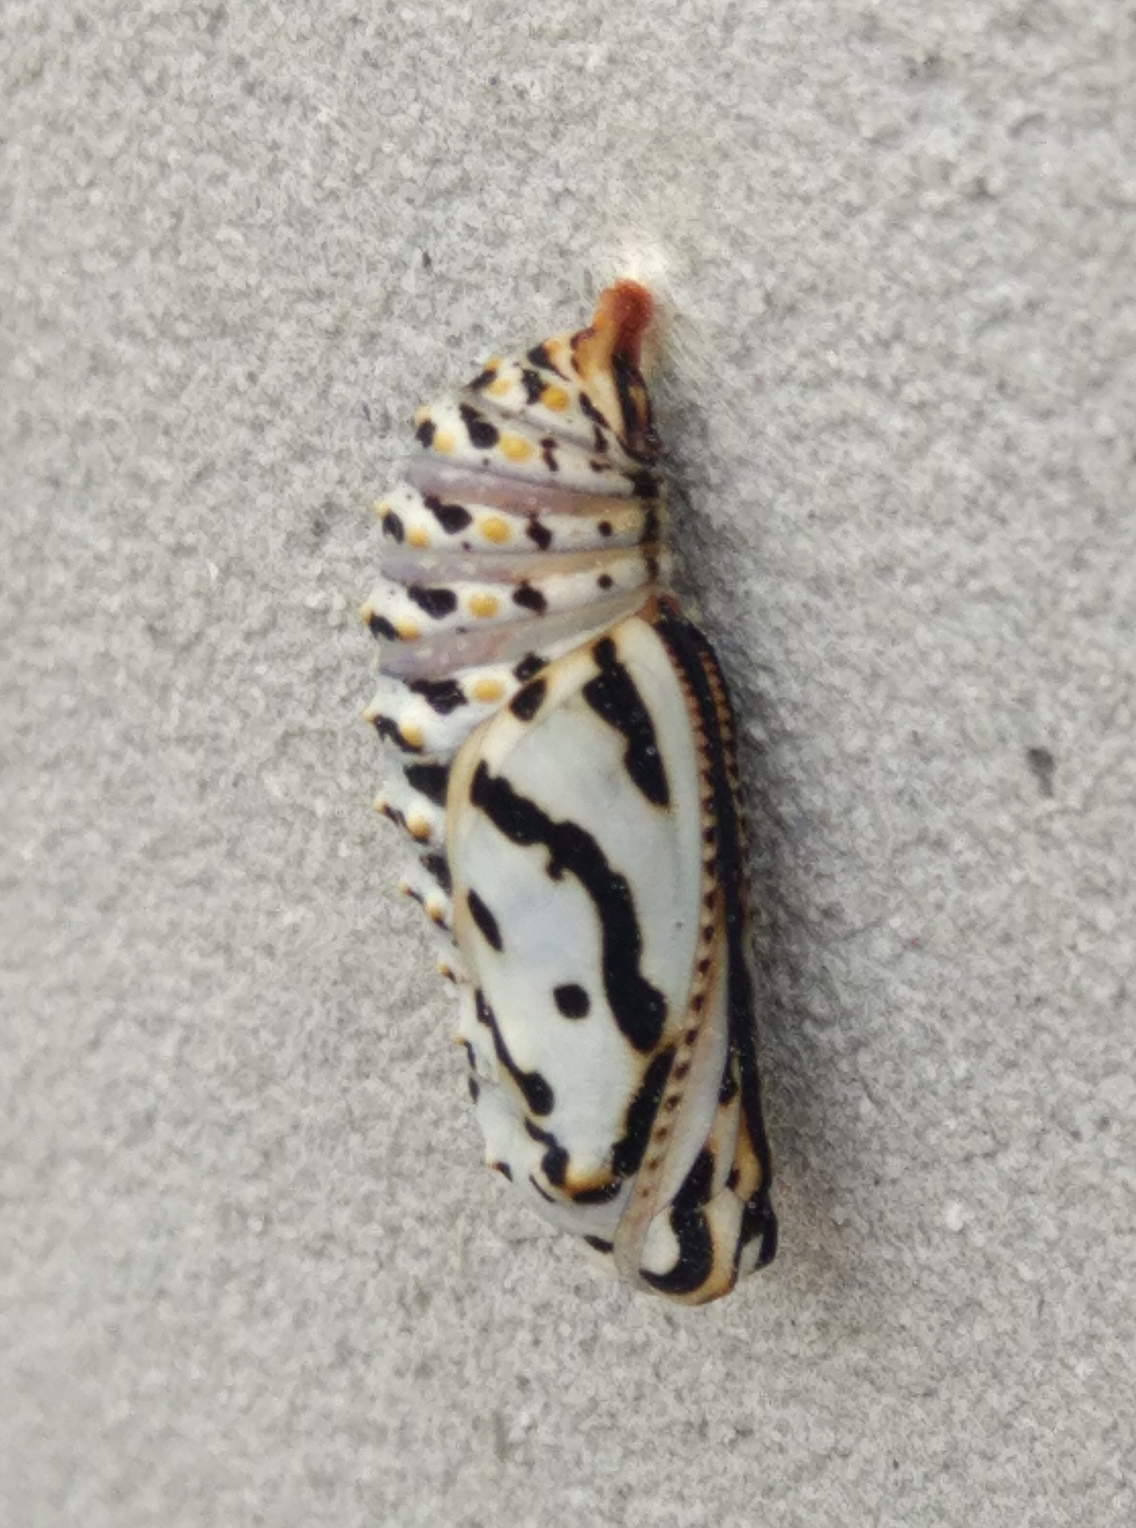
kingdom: Animalia
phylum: Arthropoda
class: Insecta
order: Lepidoptera
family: Nymphalidae
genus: Melitaea
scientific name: Melitaea didyma
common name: Spotted fritillary
